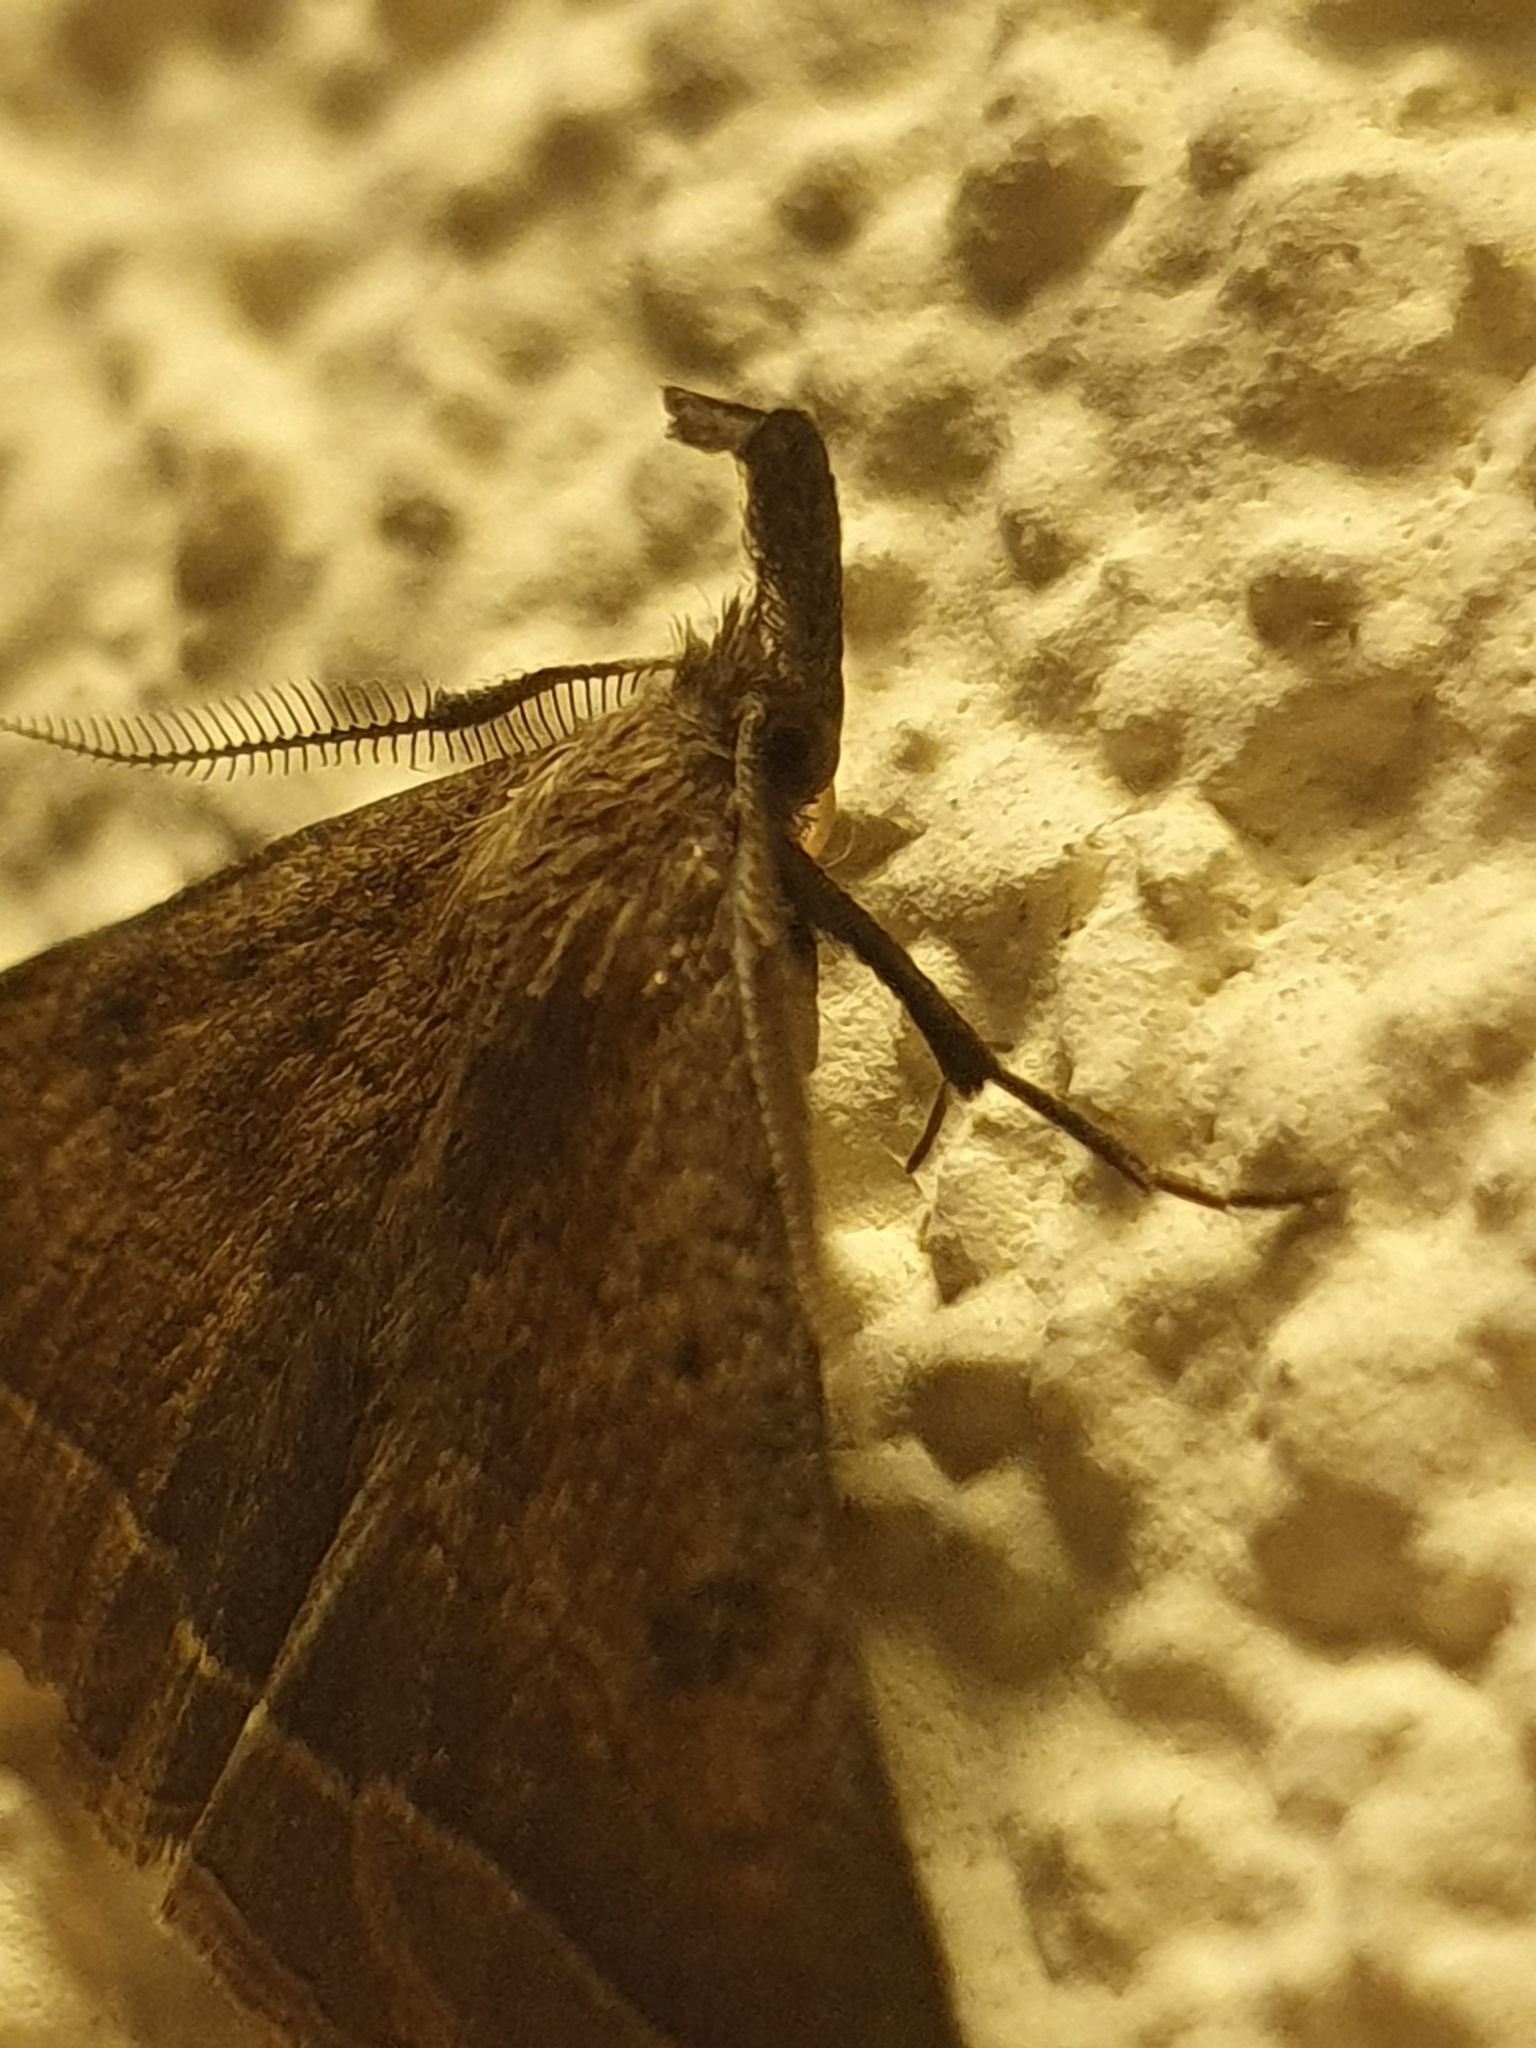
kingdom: Animalia
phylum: Arthropoda
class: Insecta
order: Lepidoptera
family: Erebidae
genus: Pechipogo
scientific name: Pechipogo plumigeralis
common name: Plumed fan-foot
